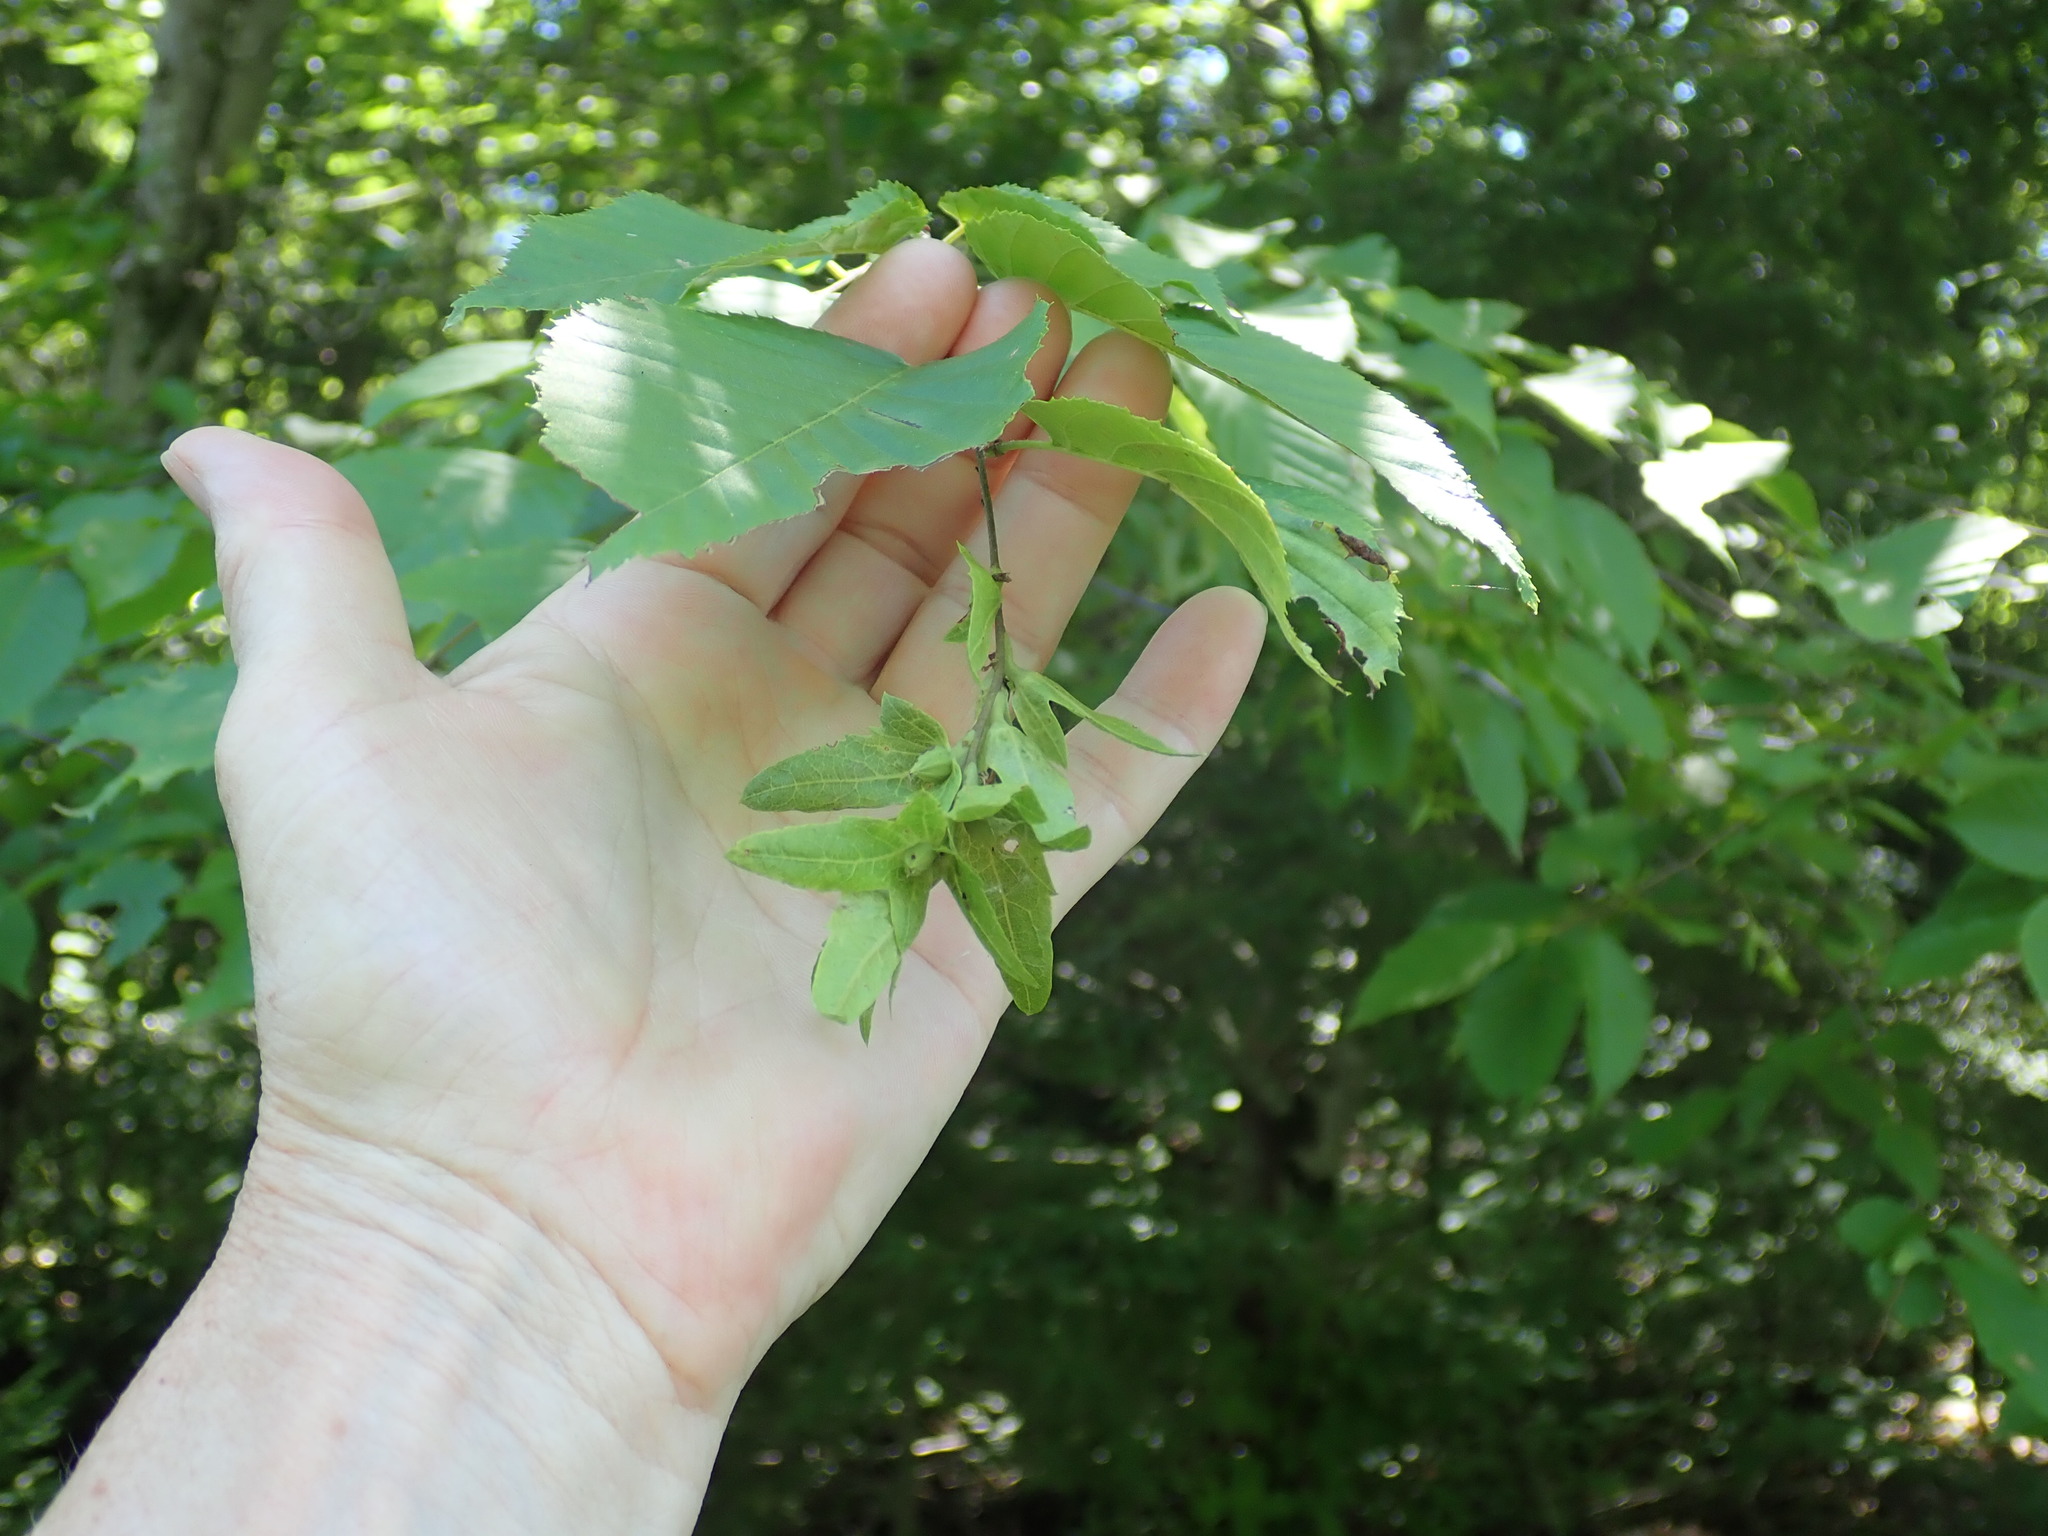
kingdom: Plantae
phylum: Tracheophyta
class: Magnoliopsida
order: Fagales
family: Betulaceae
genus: Carpinus
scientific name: Carpinus caroliniana
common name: American hornbeam
